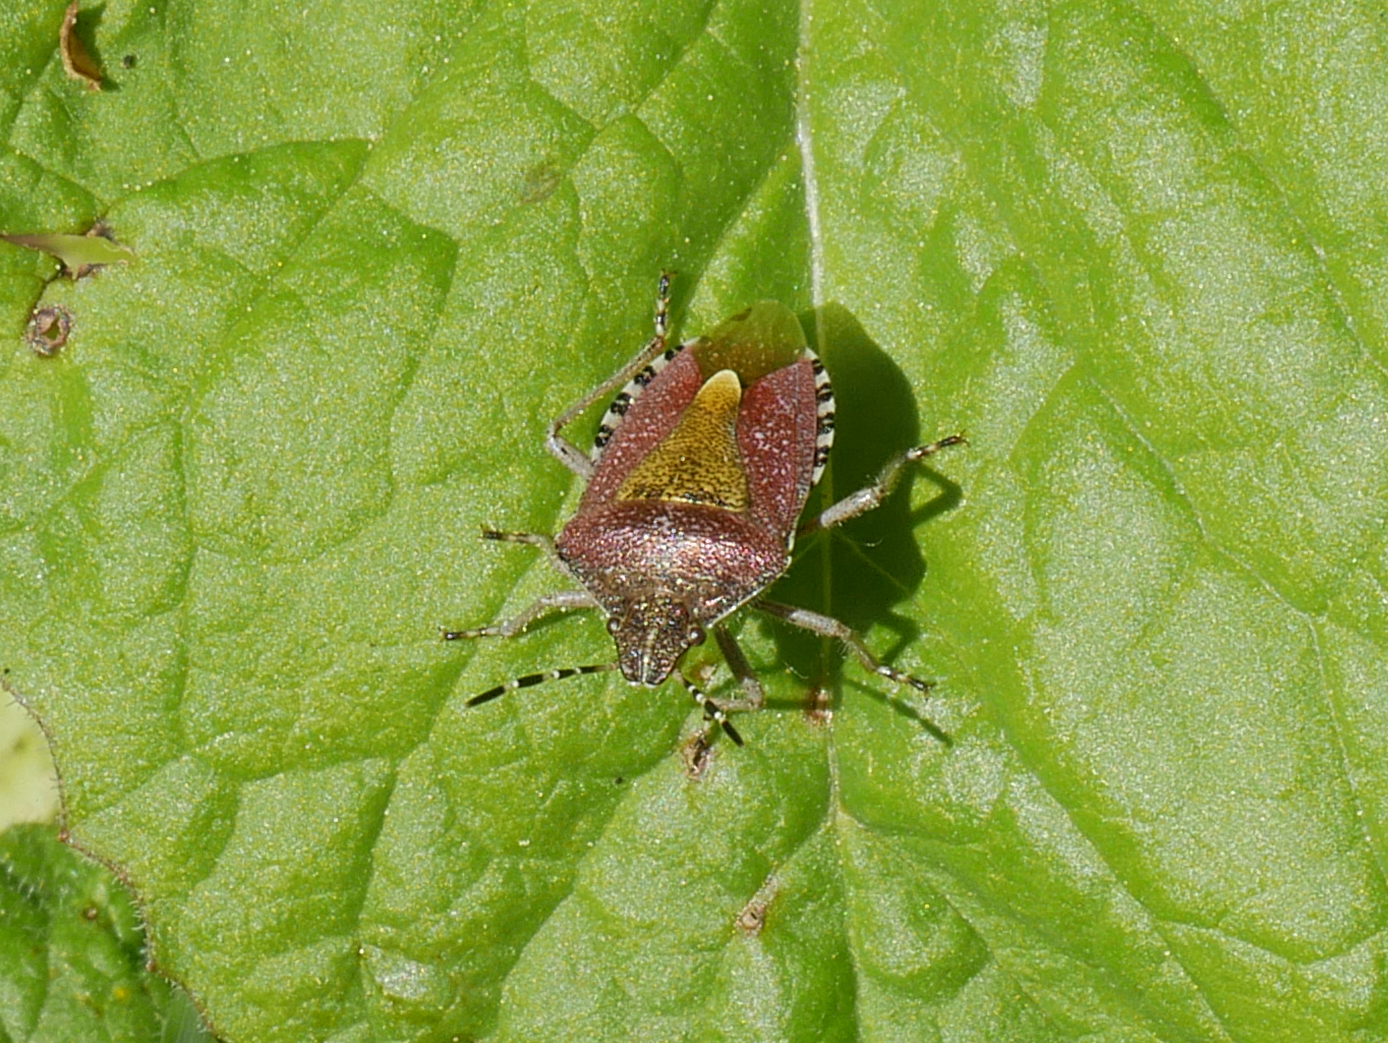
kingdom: Animalia
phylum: Arthropoda
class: Insecta
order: Hemiptera
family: Pentatomidae
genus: Dolycoris
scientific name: Dolycoris baccarum
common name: Sloe bug
